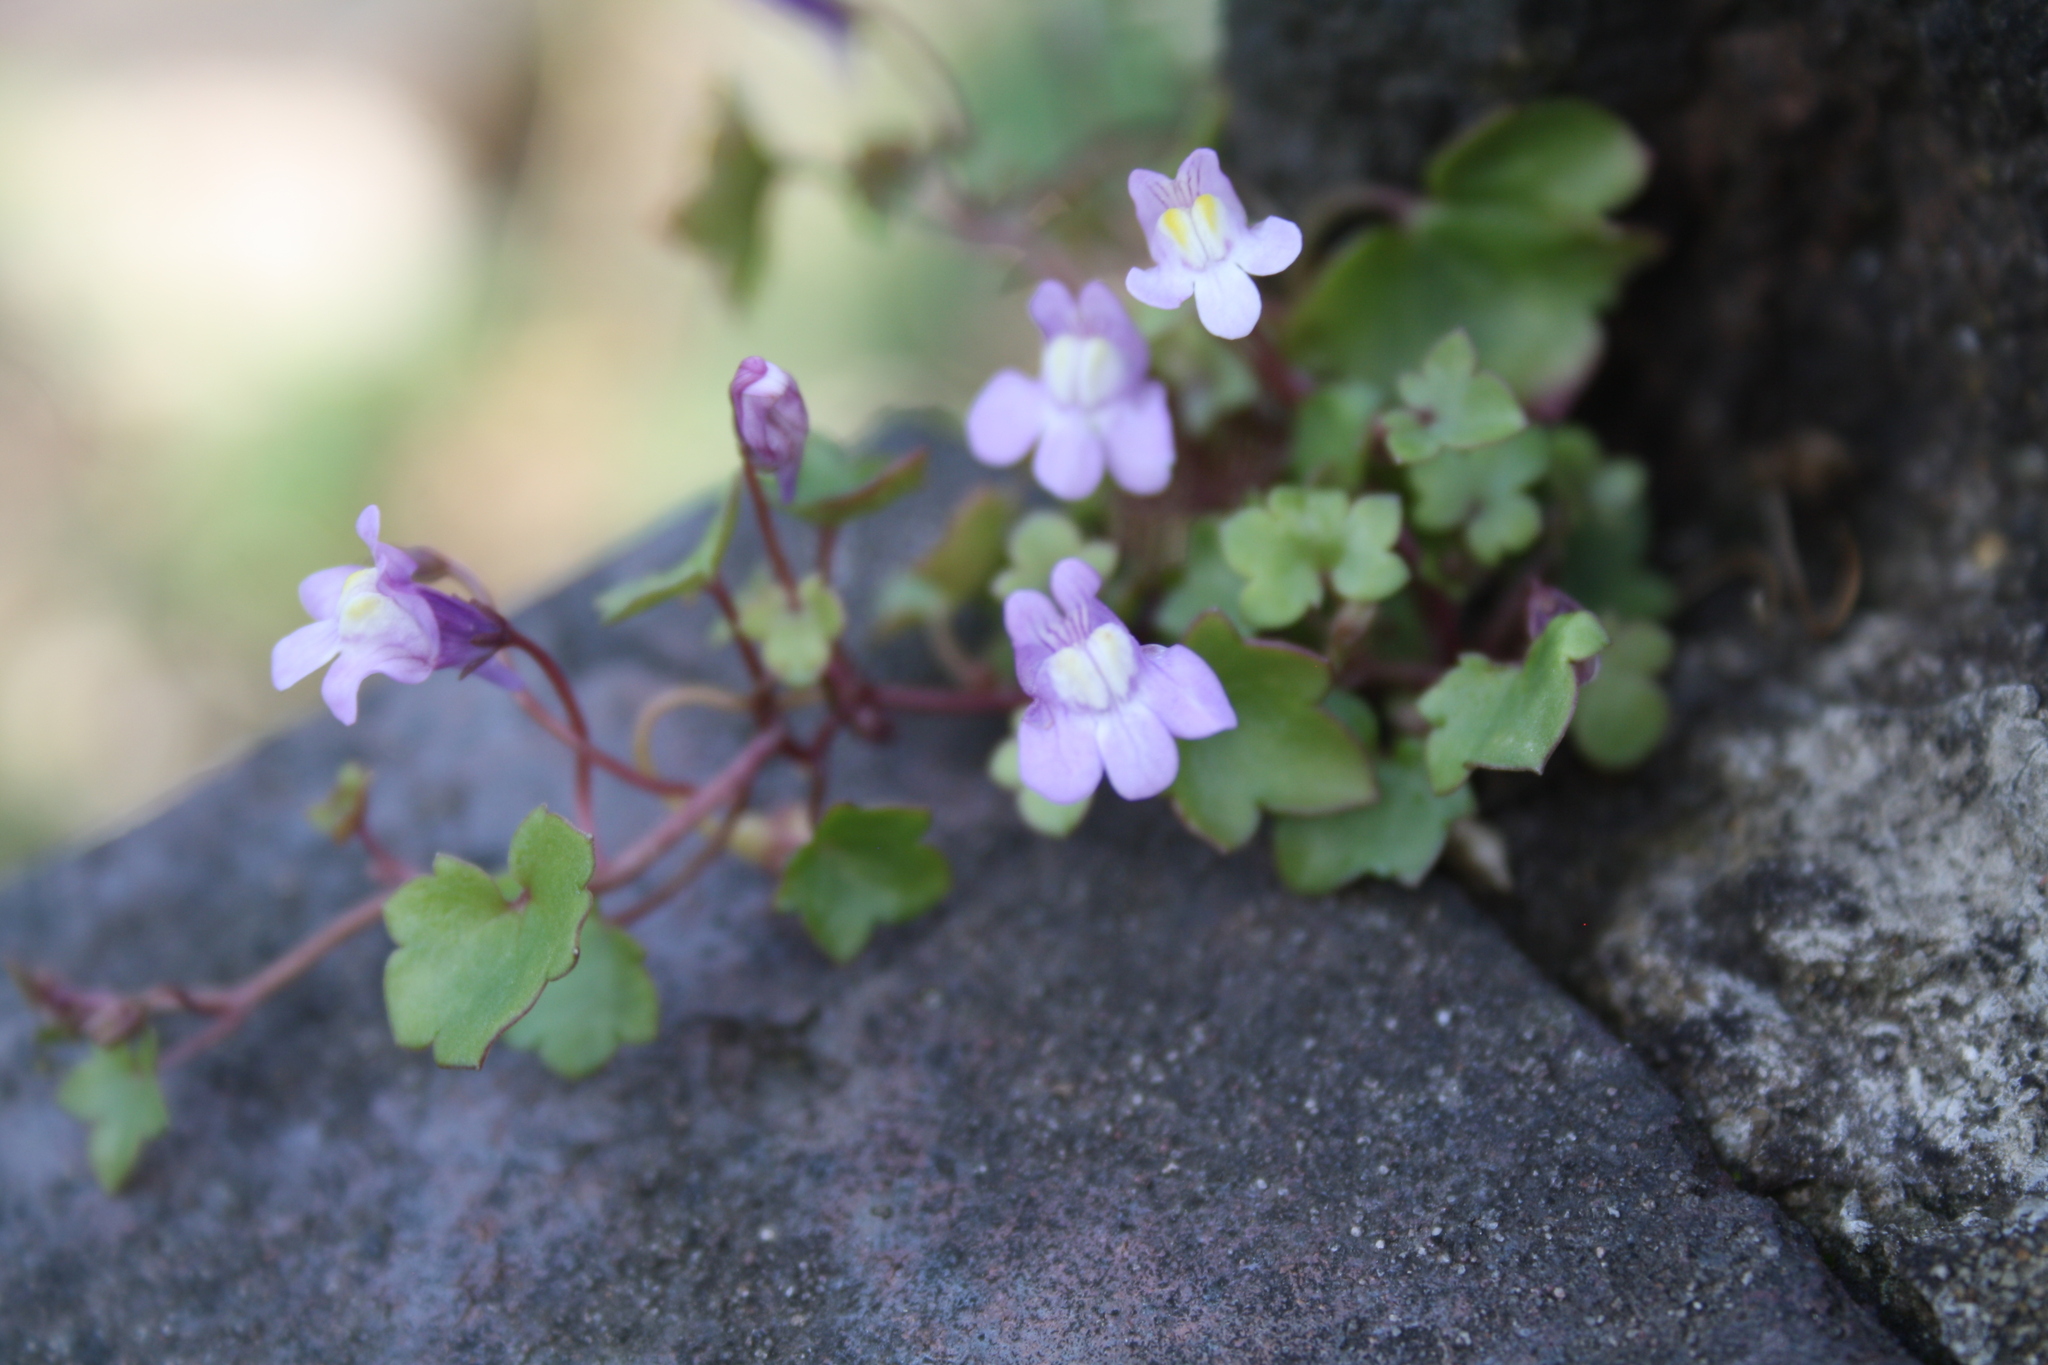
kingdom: Plantae
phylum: Tracheophyta
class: Magnoliopsida
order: Lamiales
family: Plantaginaceae
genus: Cymbalaria
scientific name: Cymbalaria muralis
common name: Ivy-leaved toadflax
